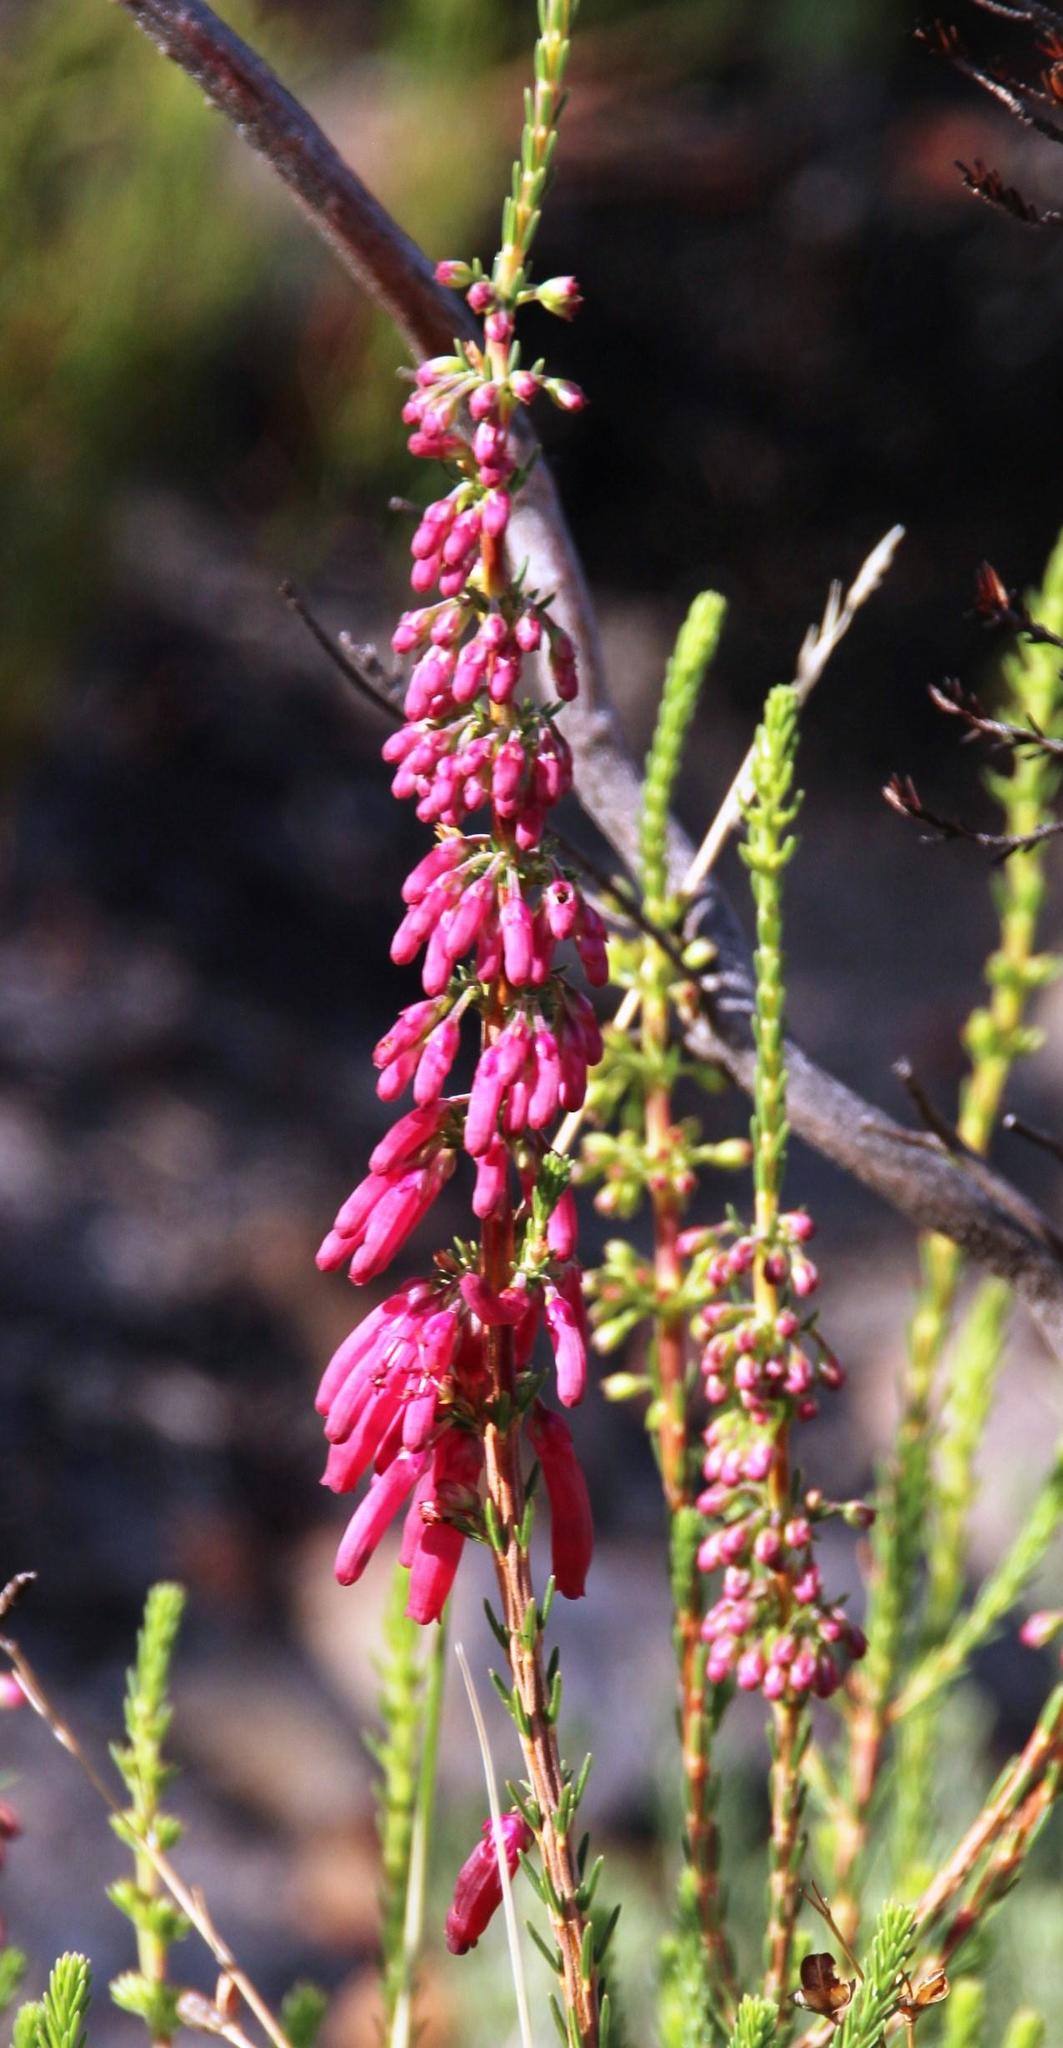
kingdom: Plantae
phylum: Tracheophyta
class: Magnoliopsida
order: Ericales
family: Ericaceae
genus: Erica
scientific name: Erica mammosa
